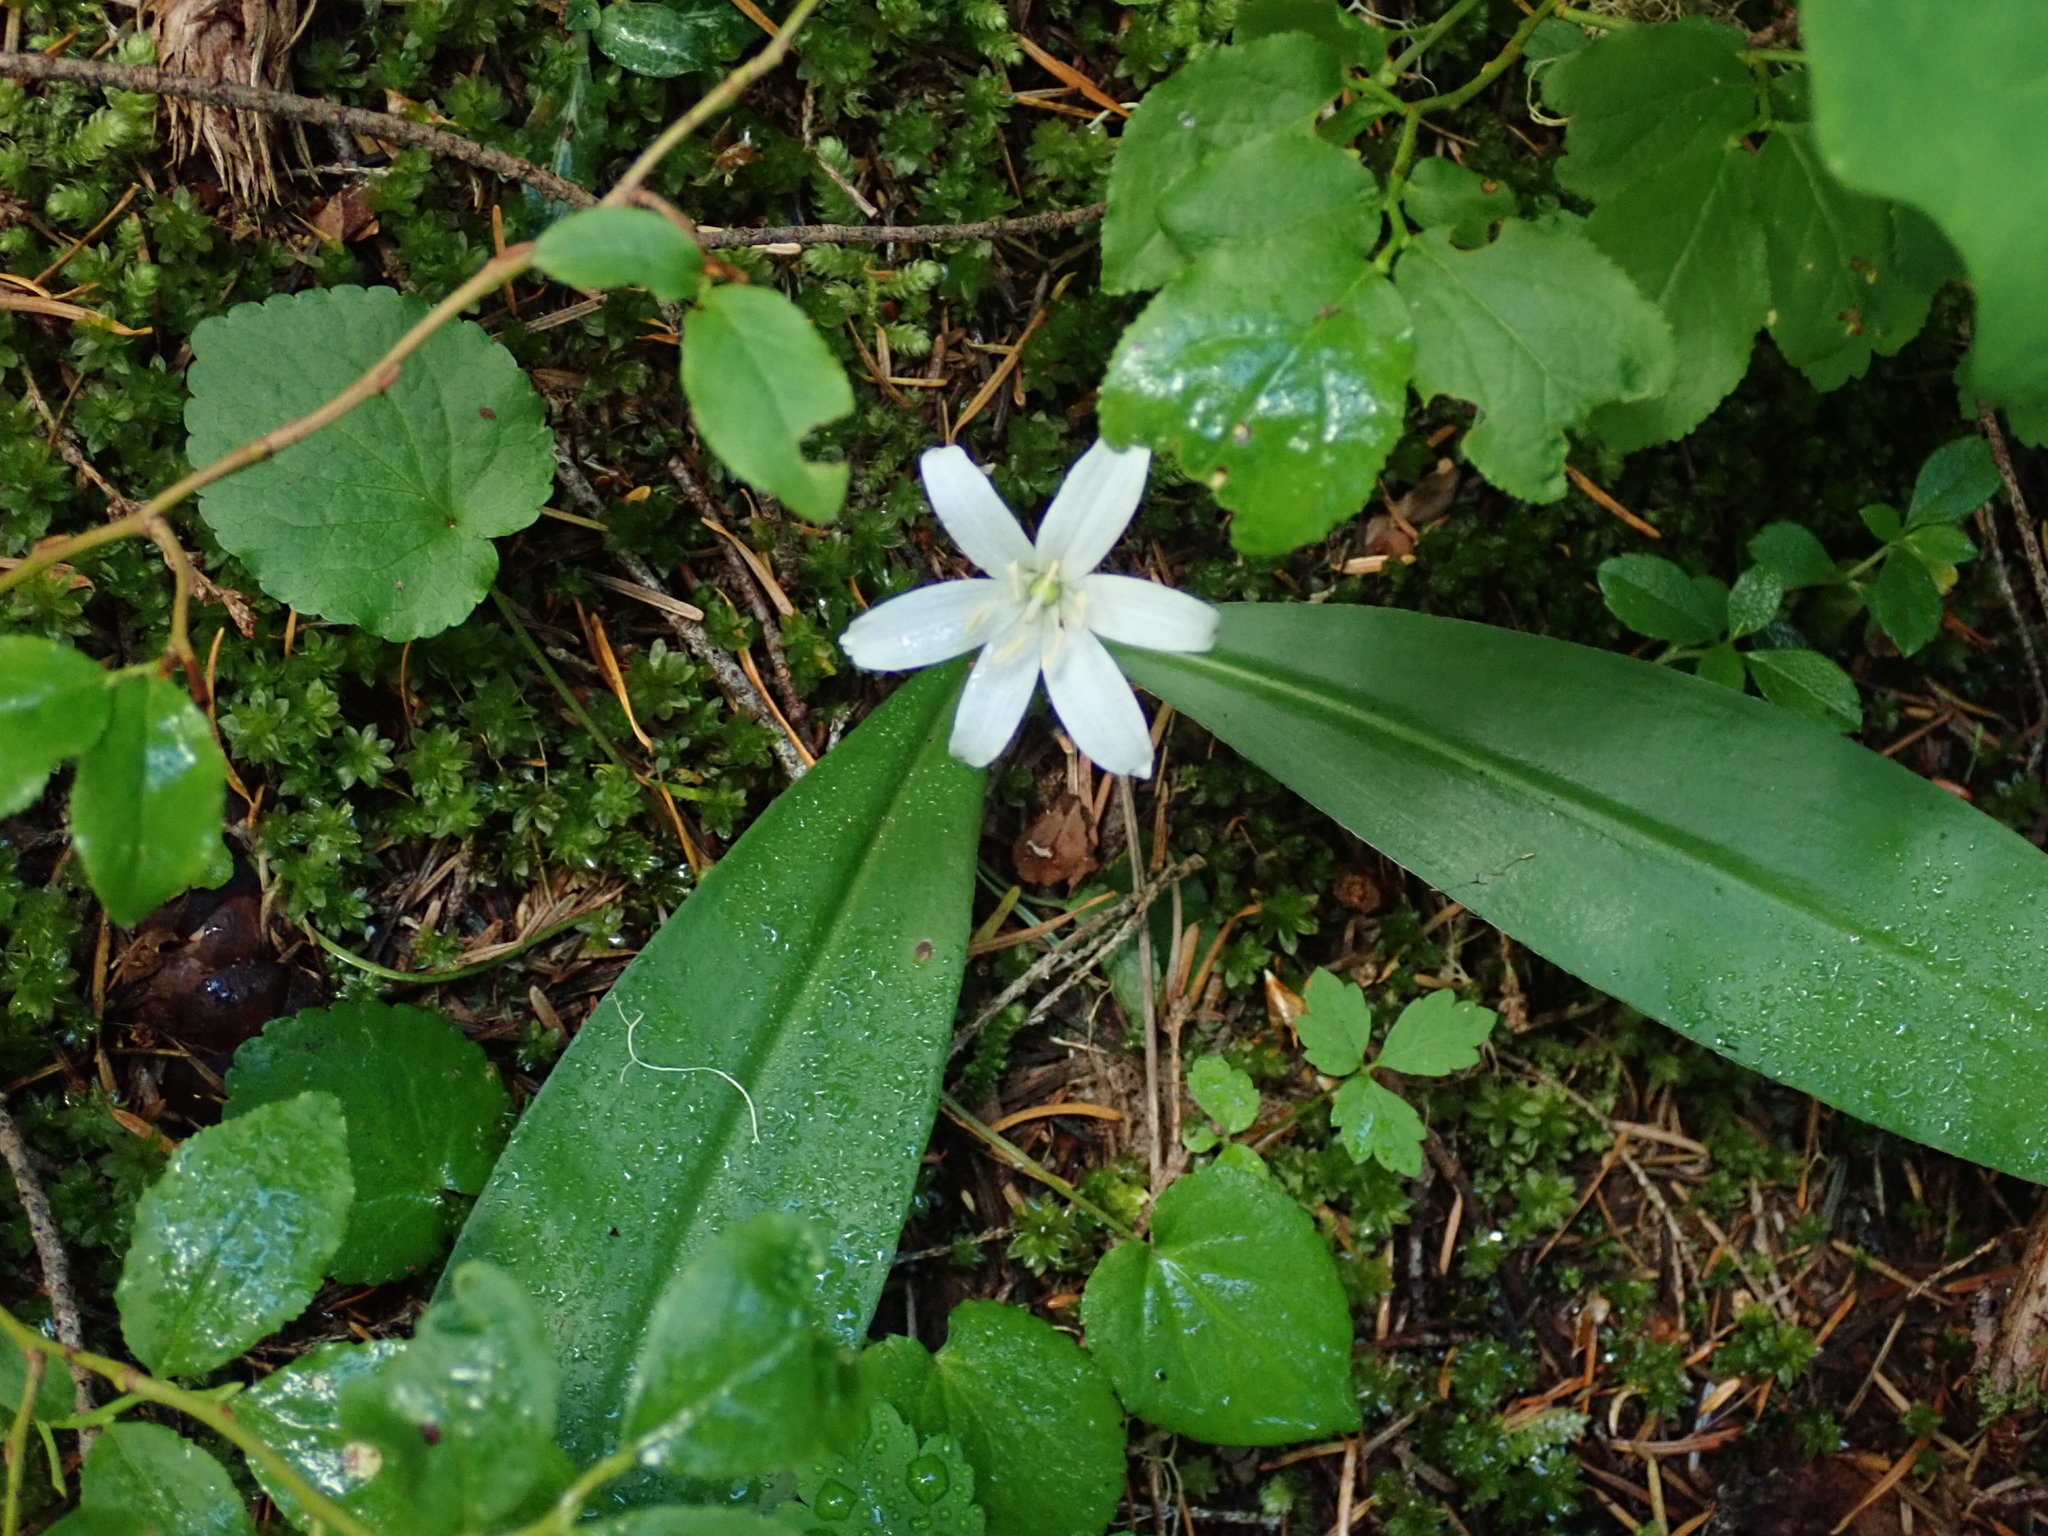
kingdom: Plantae
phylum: Tracheophyta
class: Liliopsida
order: Liliales
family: Liliaceae
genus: Clintonia
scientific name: Clintonia uniflora
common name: Queen's cup
